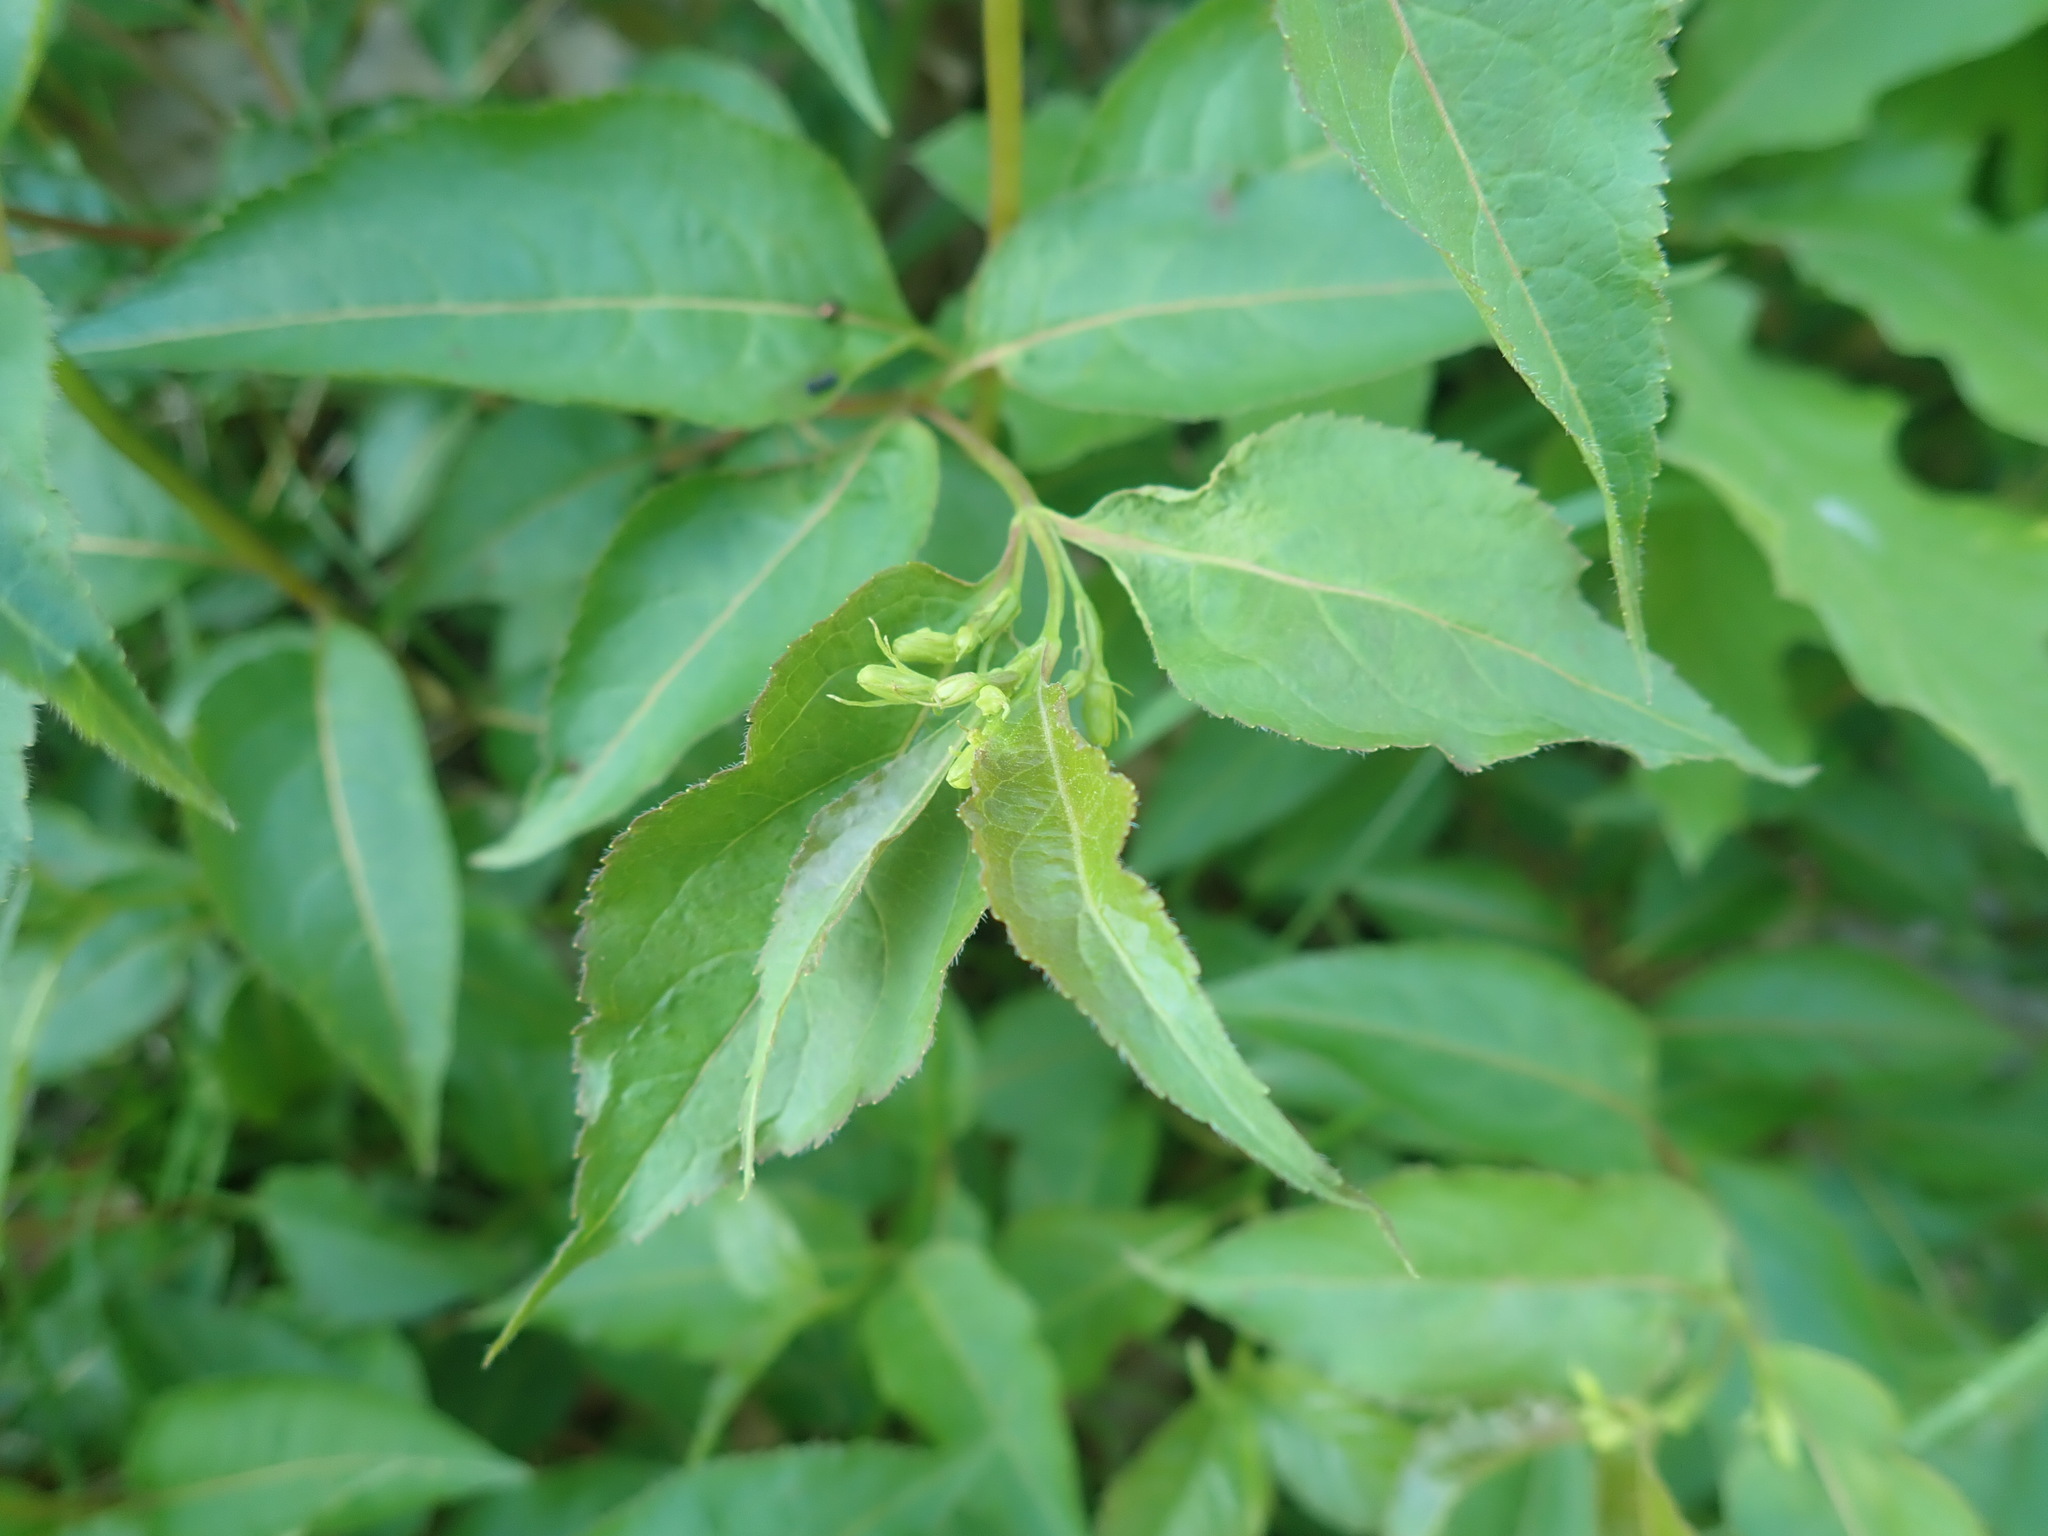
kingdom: Plantae
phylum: Tracheophyta
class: Magnoliopsida
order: Dipsacales
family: Caprifoliaceae
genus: Diervilla
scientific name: Diervilla lonicera
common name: Bush-honeysuckle
